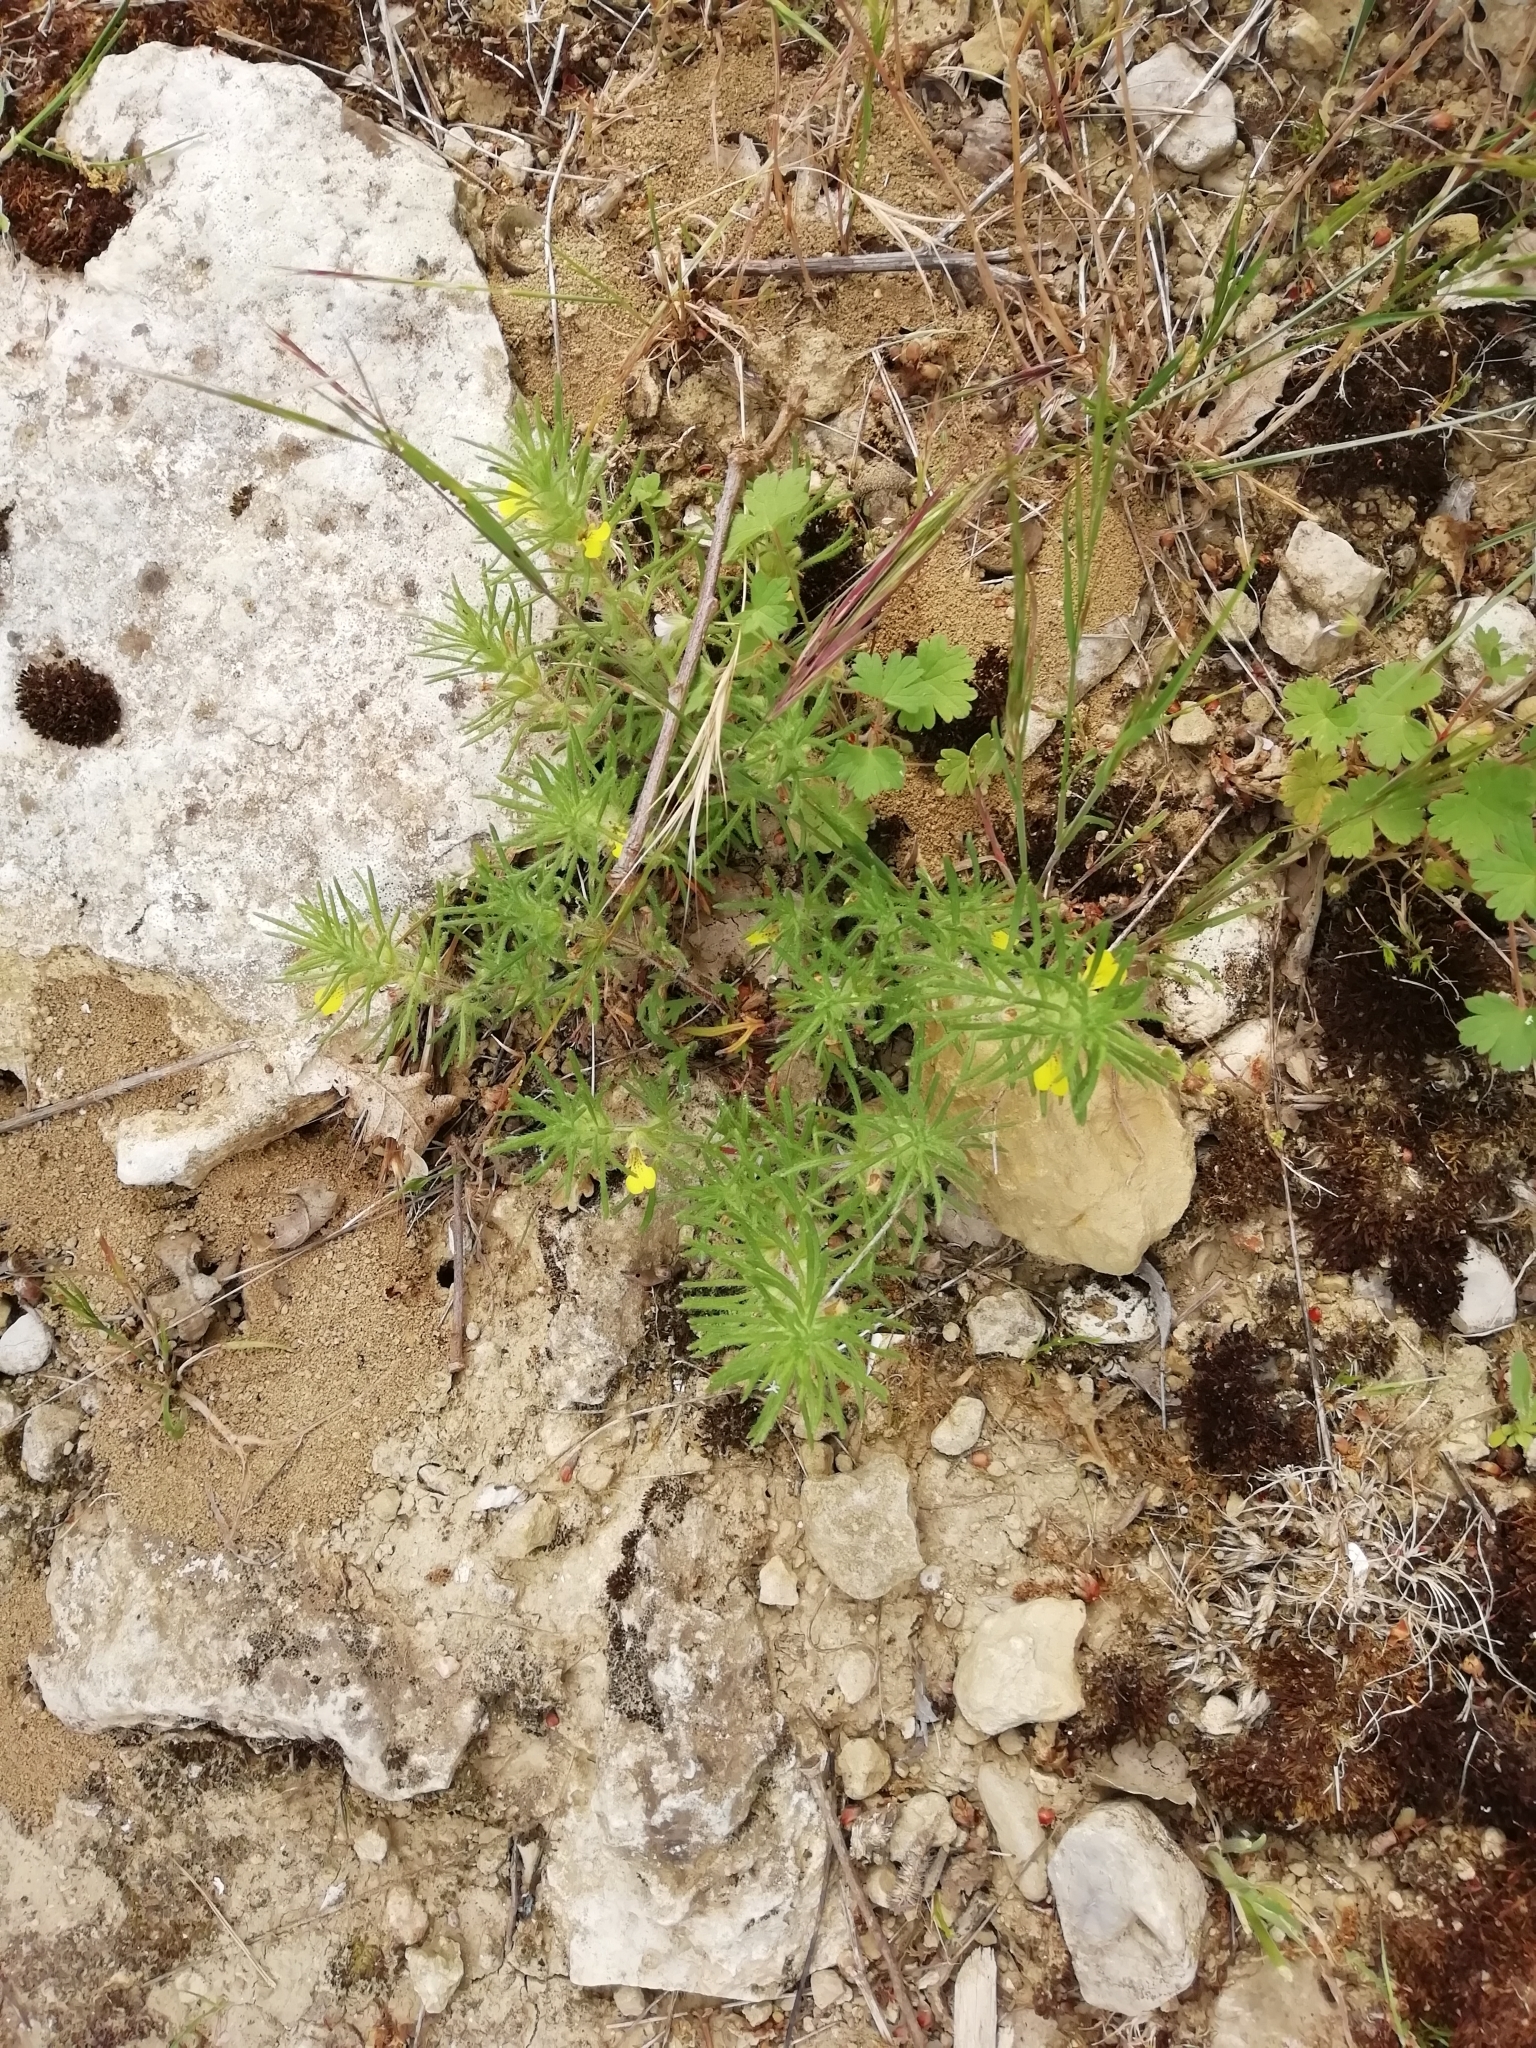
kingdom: Plantae
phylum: Tracheophyta
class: Magnoliopsida
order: Lamiales
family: Lamiaceae
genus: Ajuga
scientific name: Ajuga chamaepitys
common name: Ground-pine
